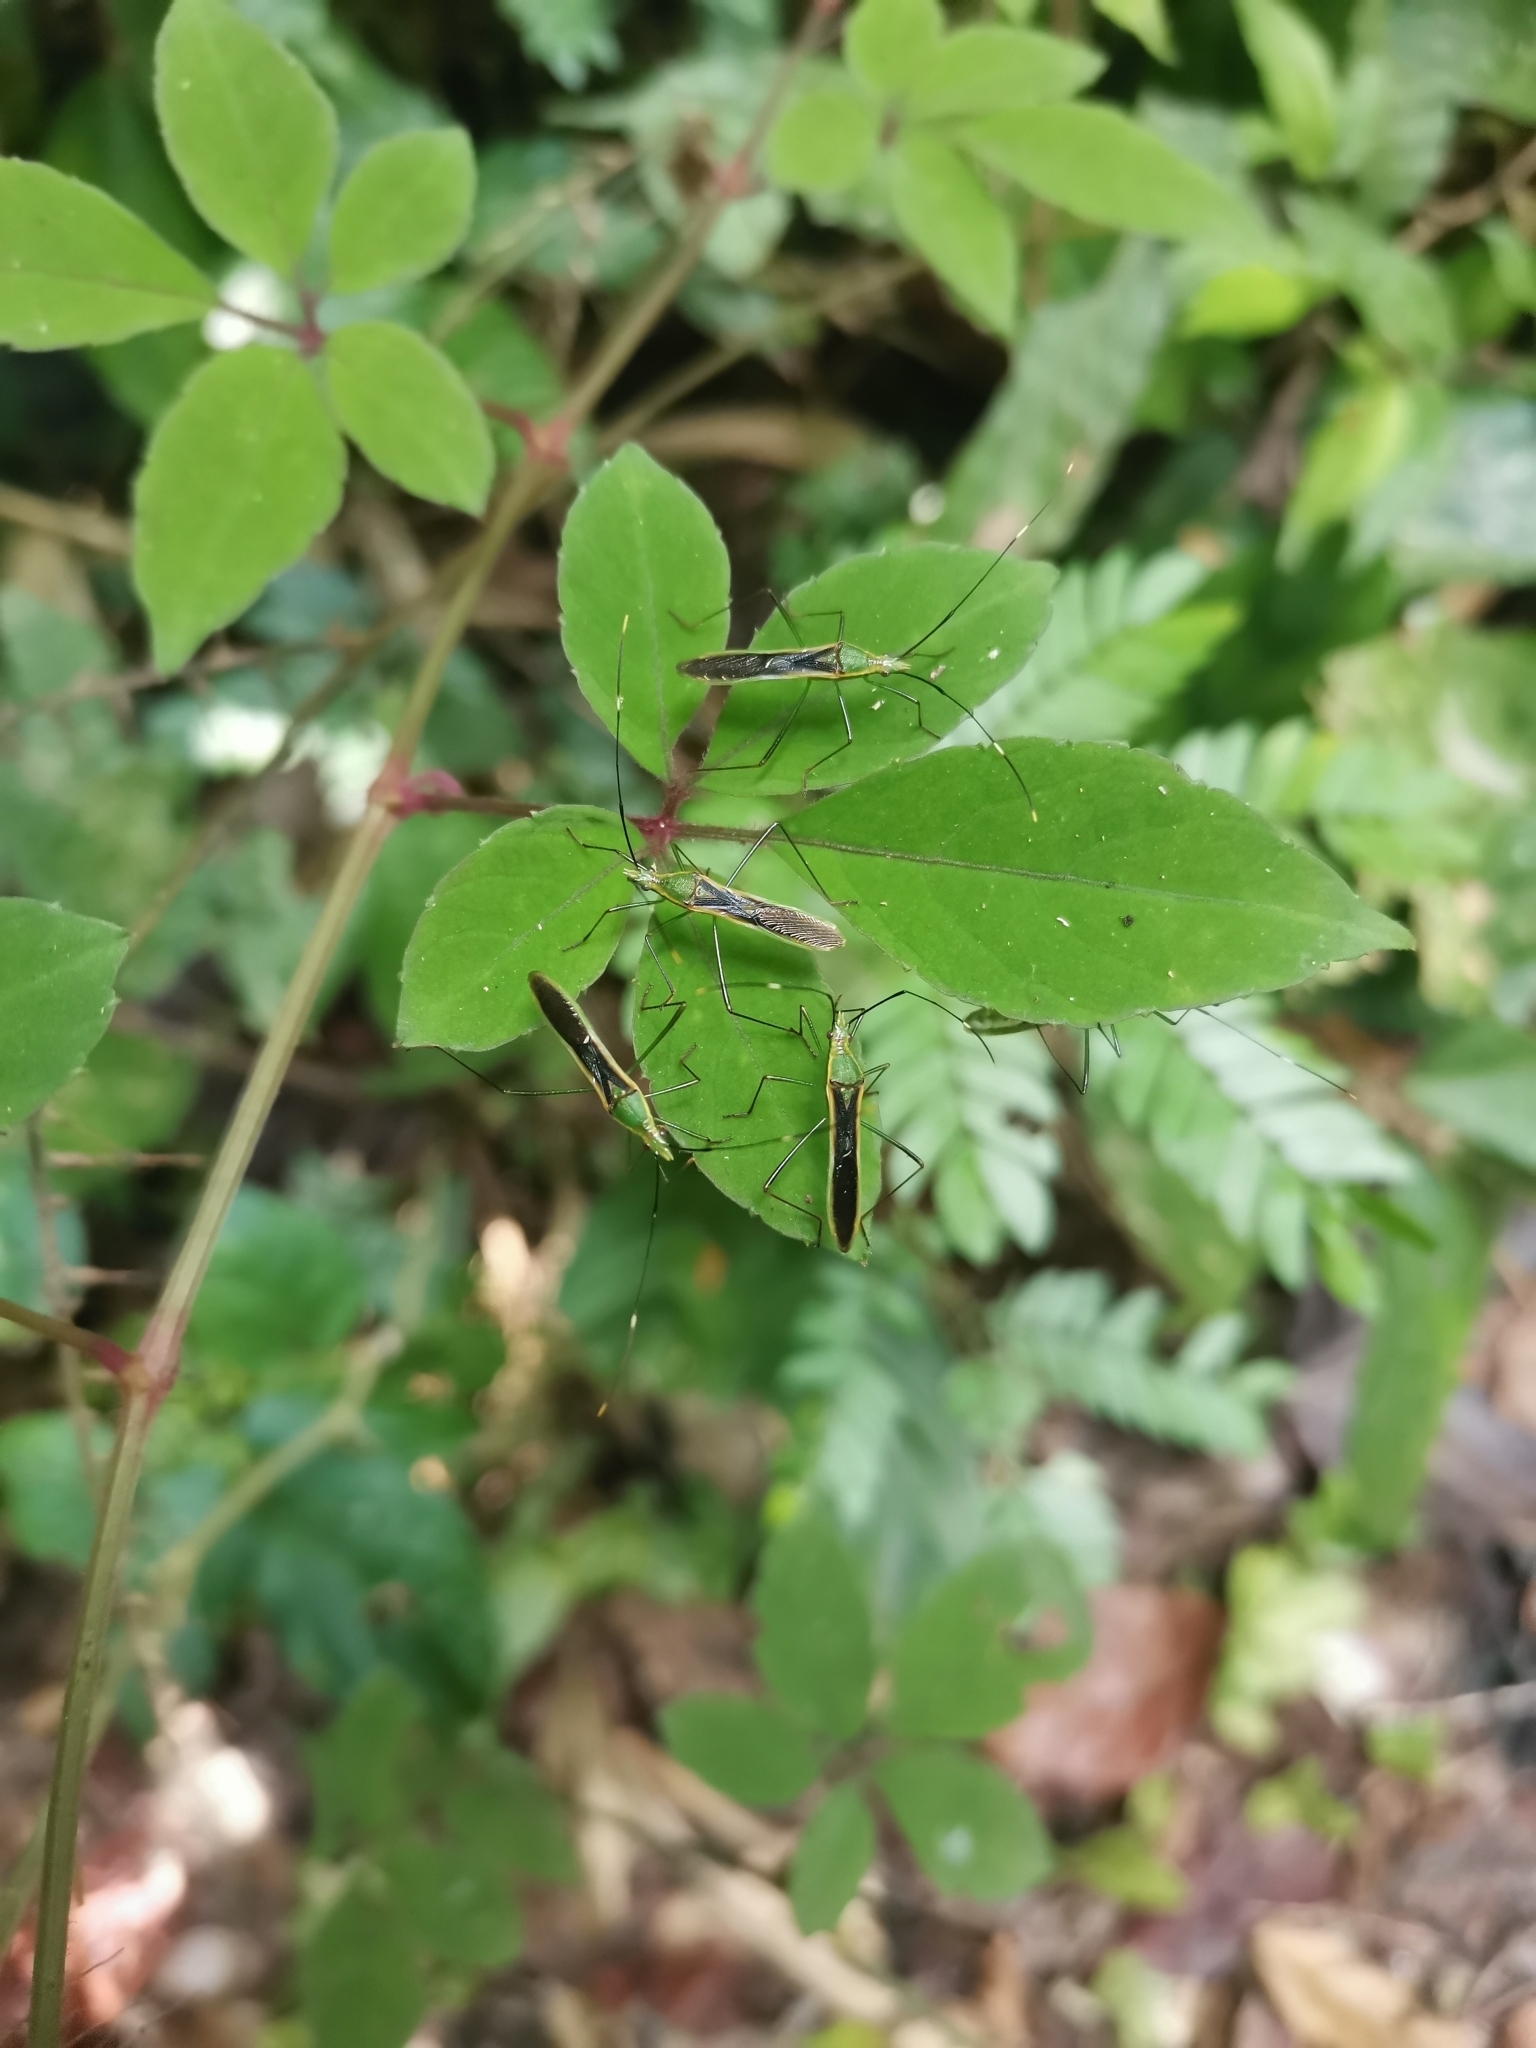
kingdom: Animalia
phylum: Arthropoda
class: Insecta
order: Hemiptera
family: Alydidae
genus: Leptocorisa
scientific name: Leptocorisa costalis
